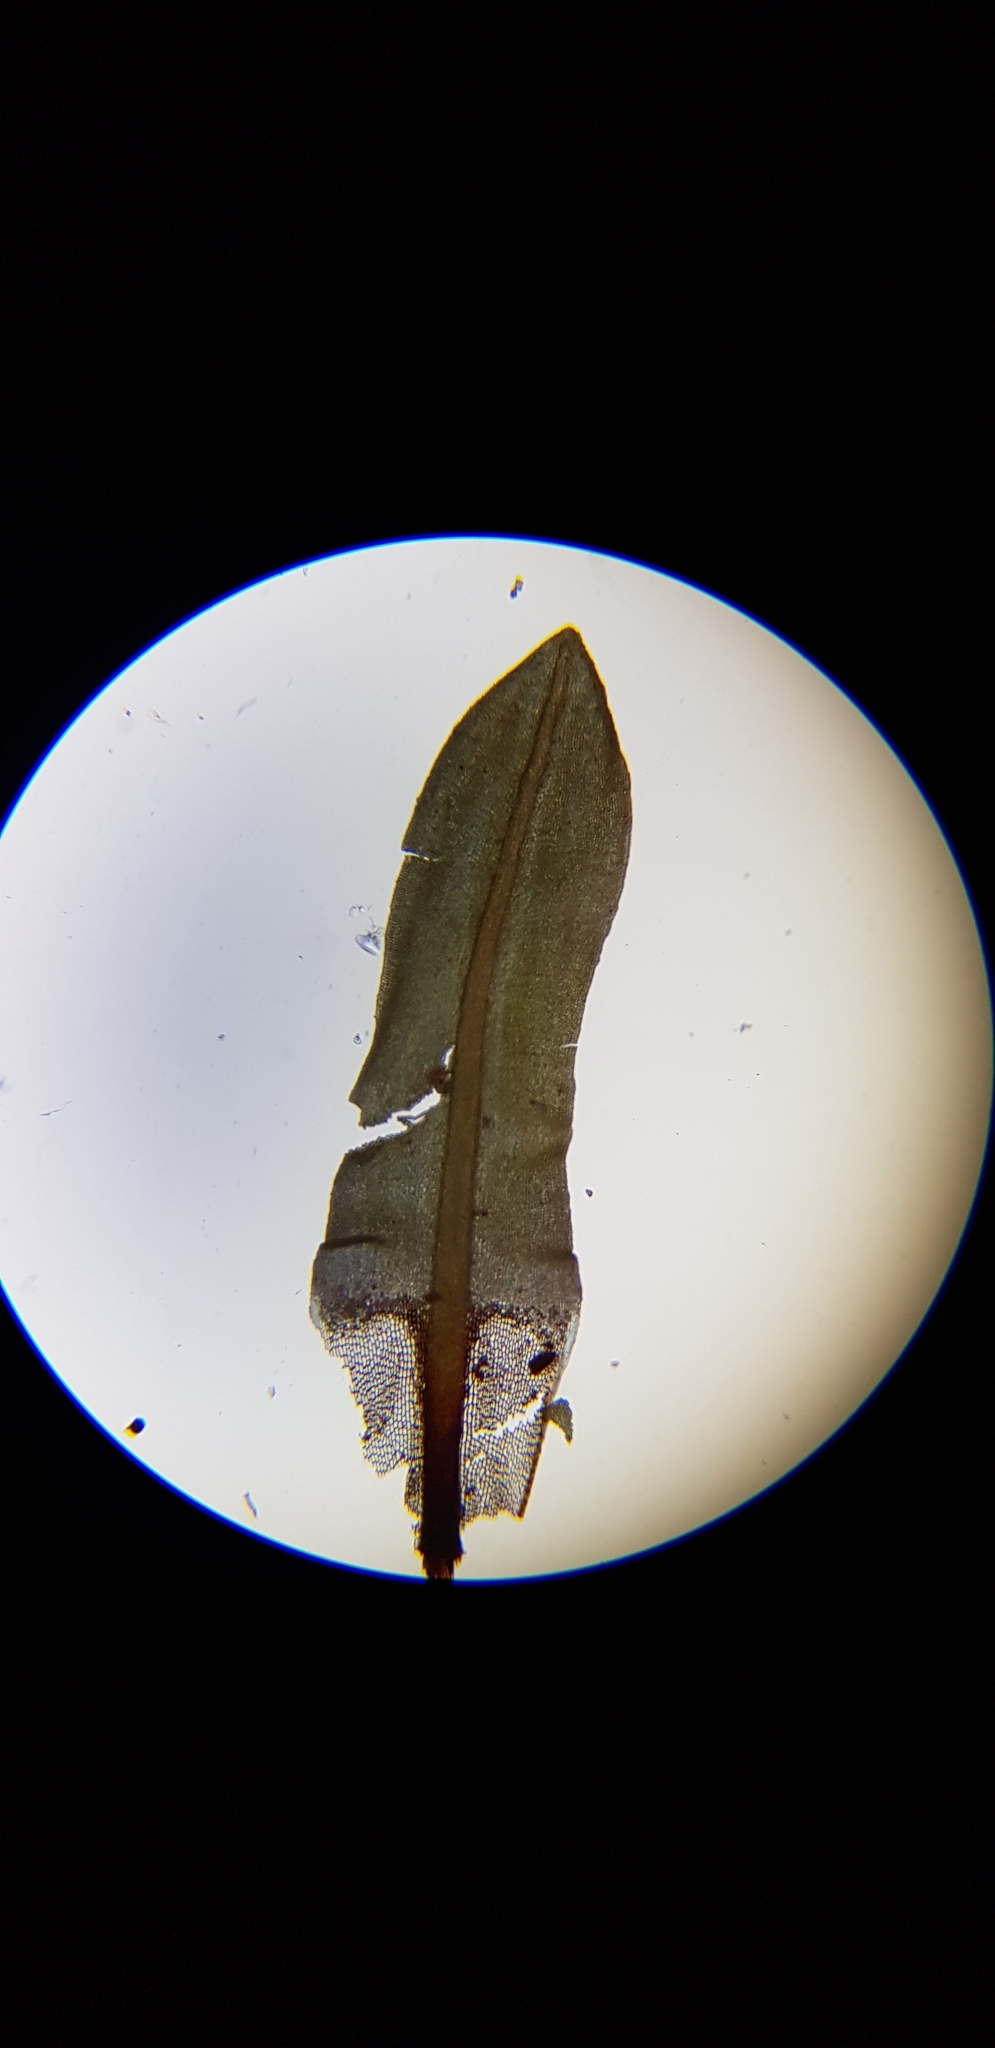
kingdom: Plantae
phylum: Bryophyta
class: Bryopsida
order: Encalyptales
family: Encalyptaceae
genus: Encalypta
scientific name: Encalypta streptocarpa
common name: Spiral extinguisher-moss
